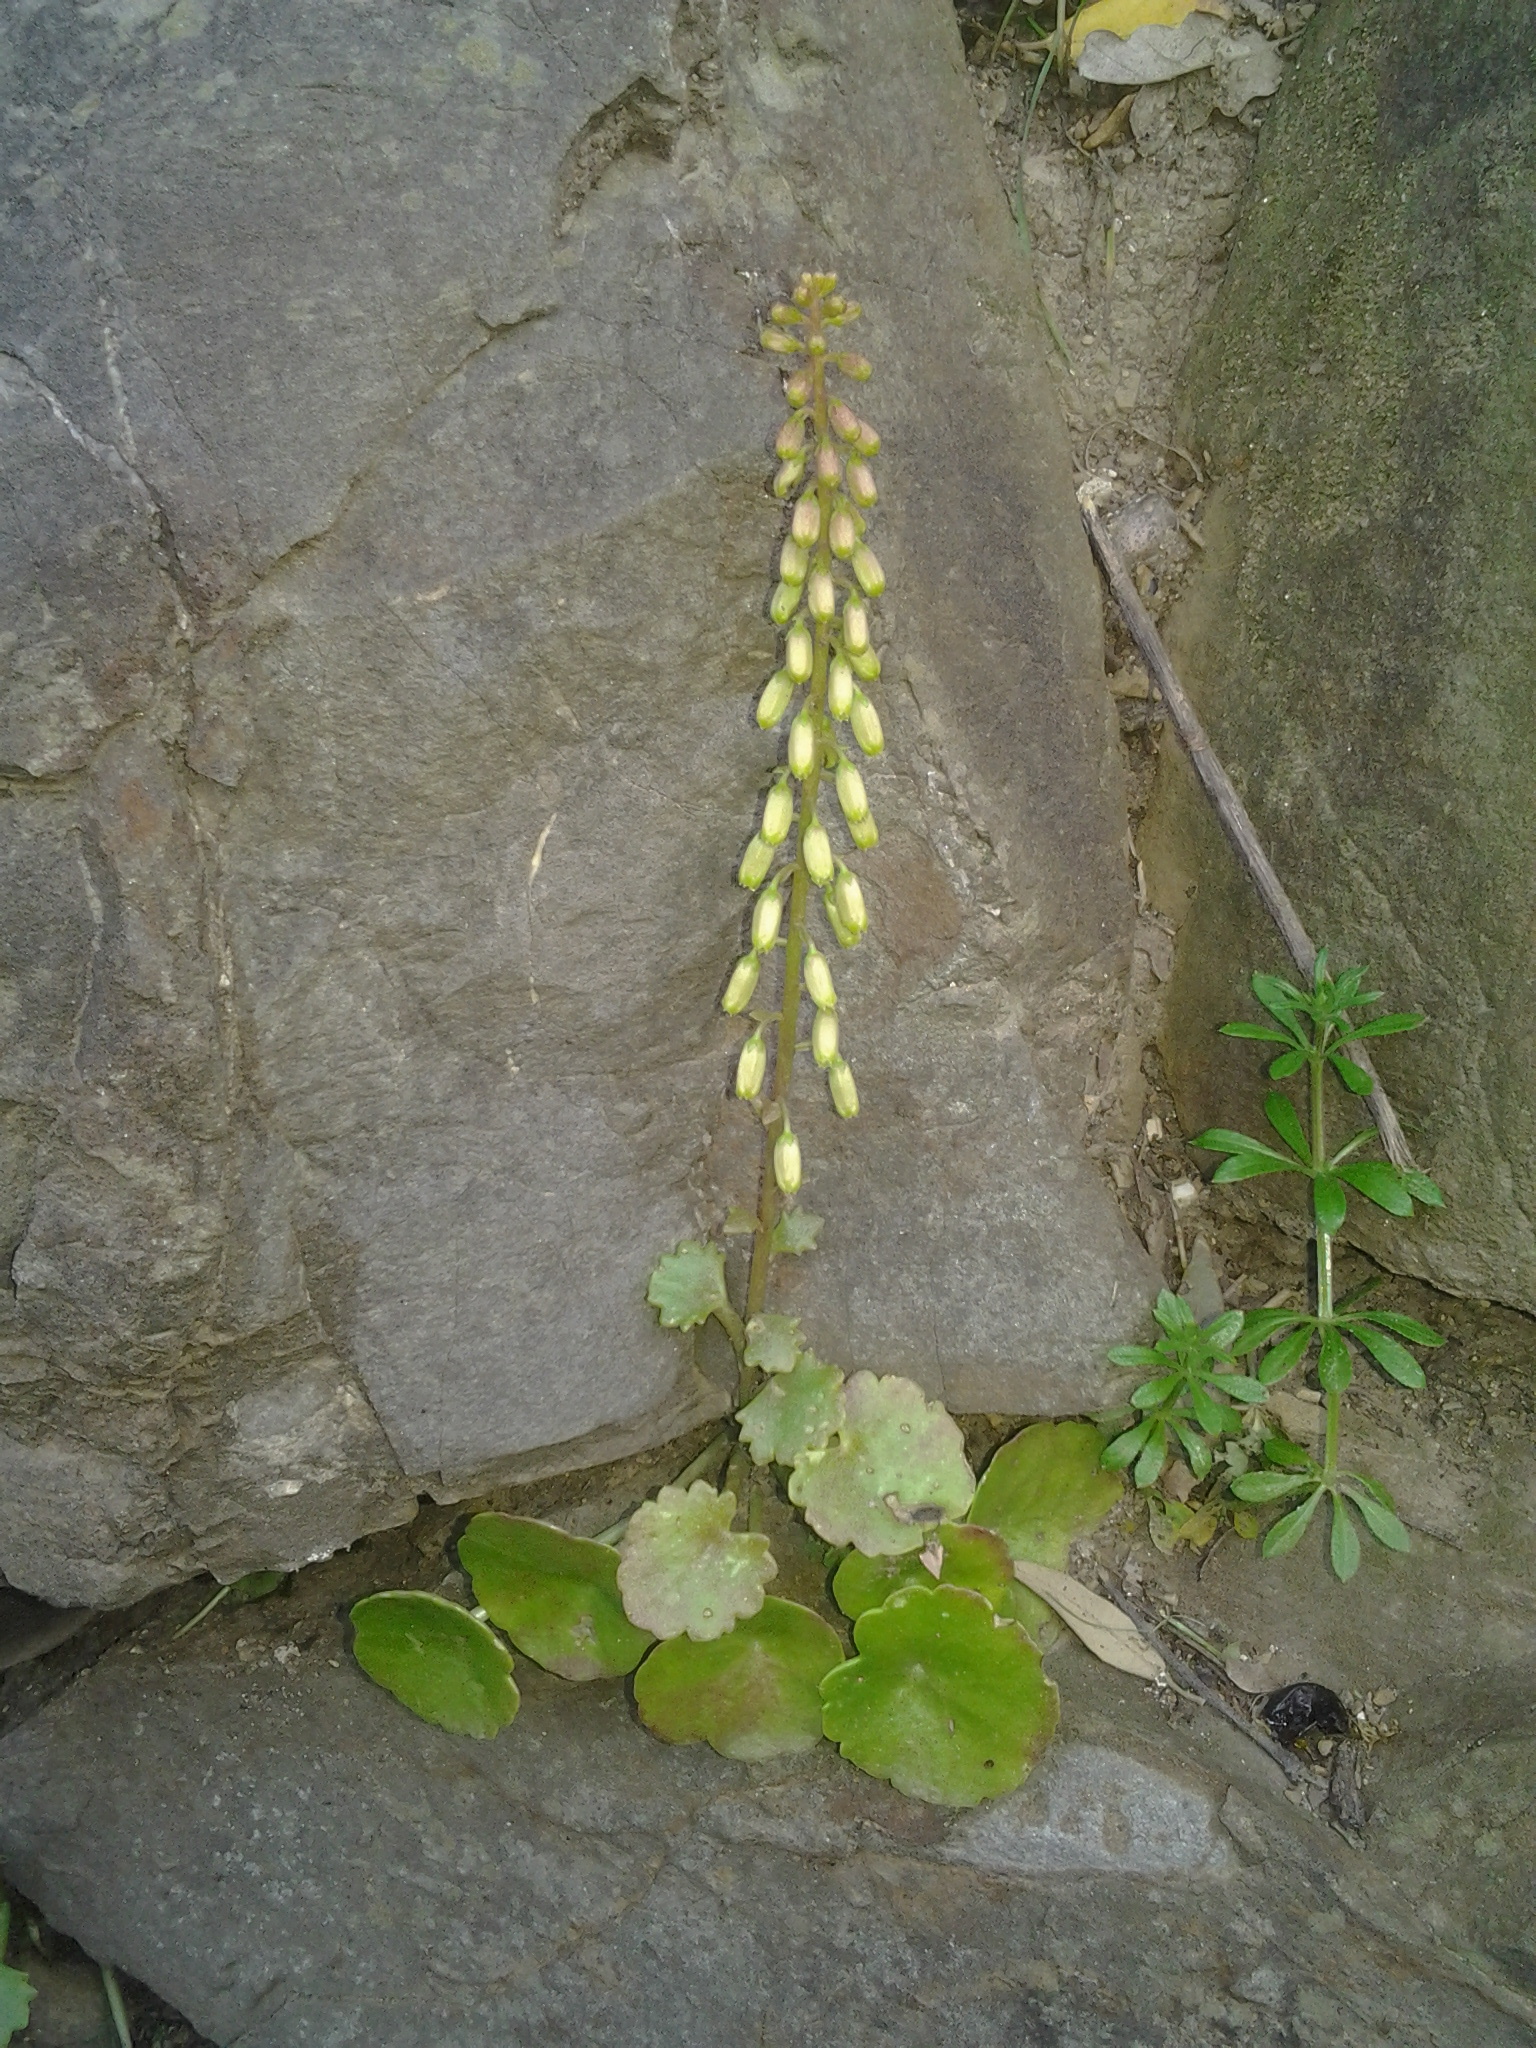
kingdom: Plantae
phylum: Tracheophyta
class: Magnoliopsida
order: Saxifragales
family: Crassulaceae
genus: Umbilicus
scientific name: Umbilicus rupestris
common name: Navelwort
